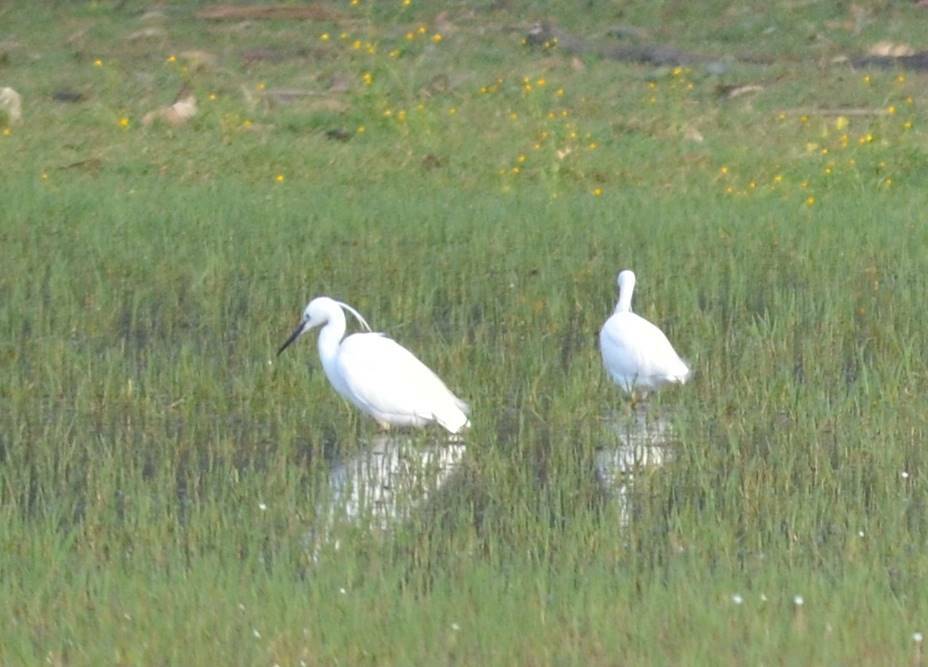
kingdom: Animalia
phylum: Chordata
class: Aves
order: Pelecaniformes
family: Ardeidae
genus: Egretta
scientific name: Egretta garzetta
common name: Little egret
